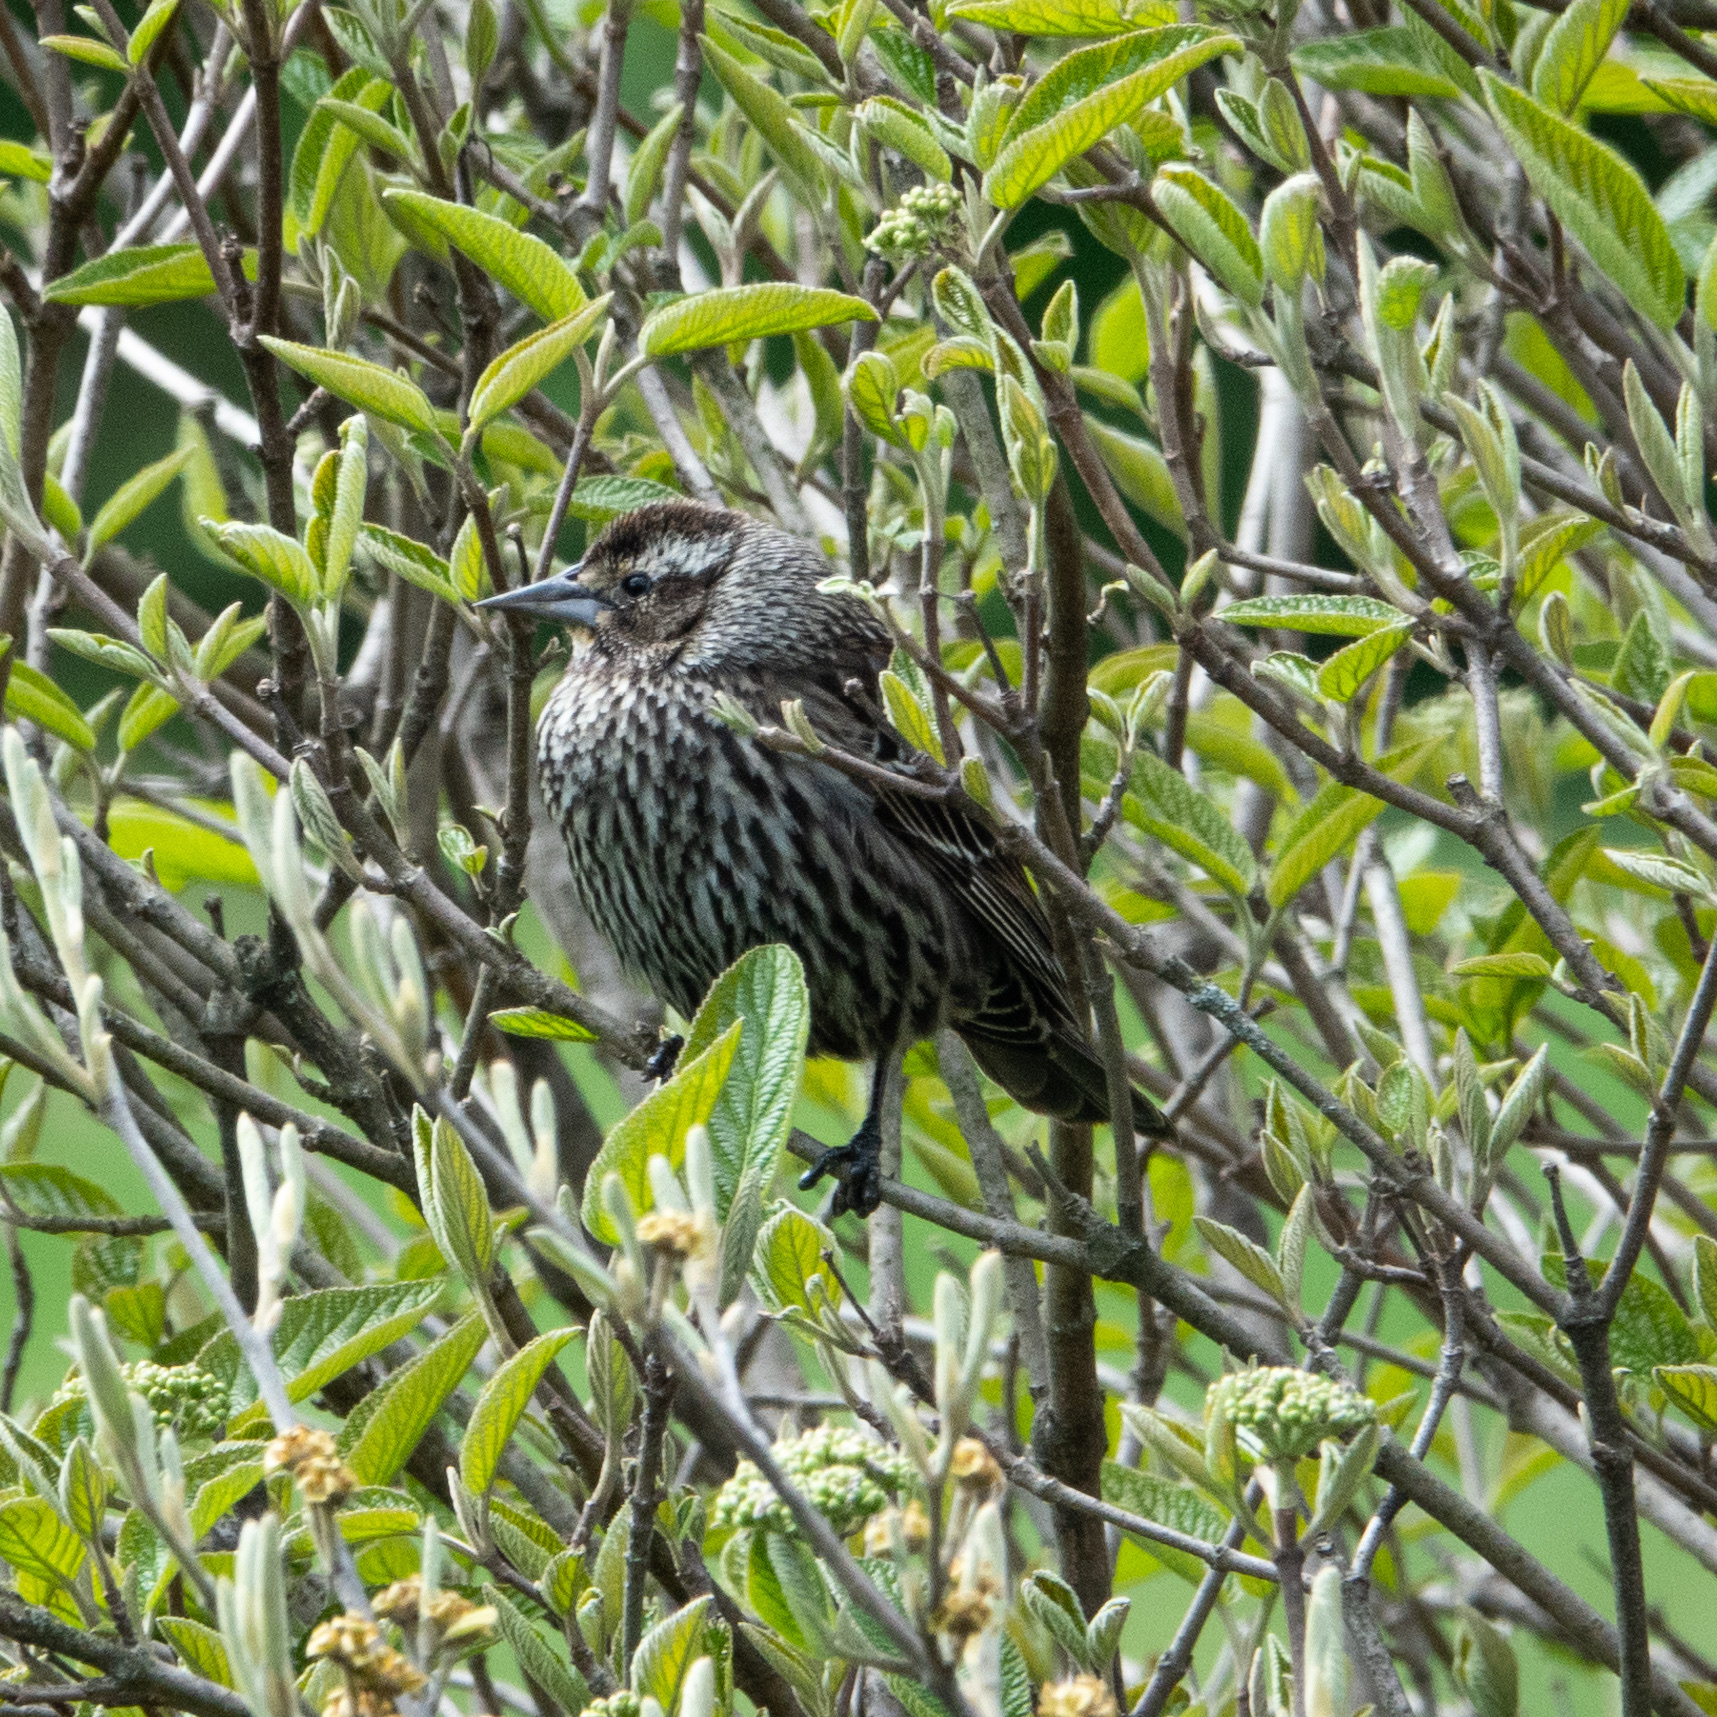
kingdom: Animalia
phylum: Chordata
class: Aves
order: Passeriformes
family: Icteridae
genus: Agelaius
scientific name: Agelaius phoeniceus
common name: Red-winged blackbird
